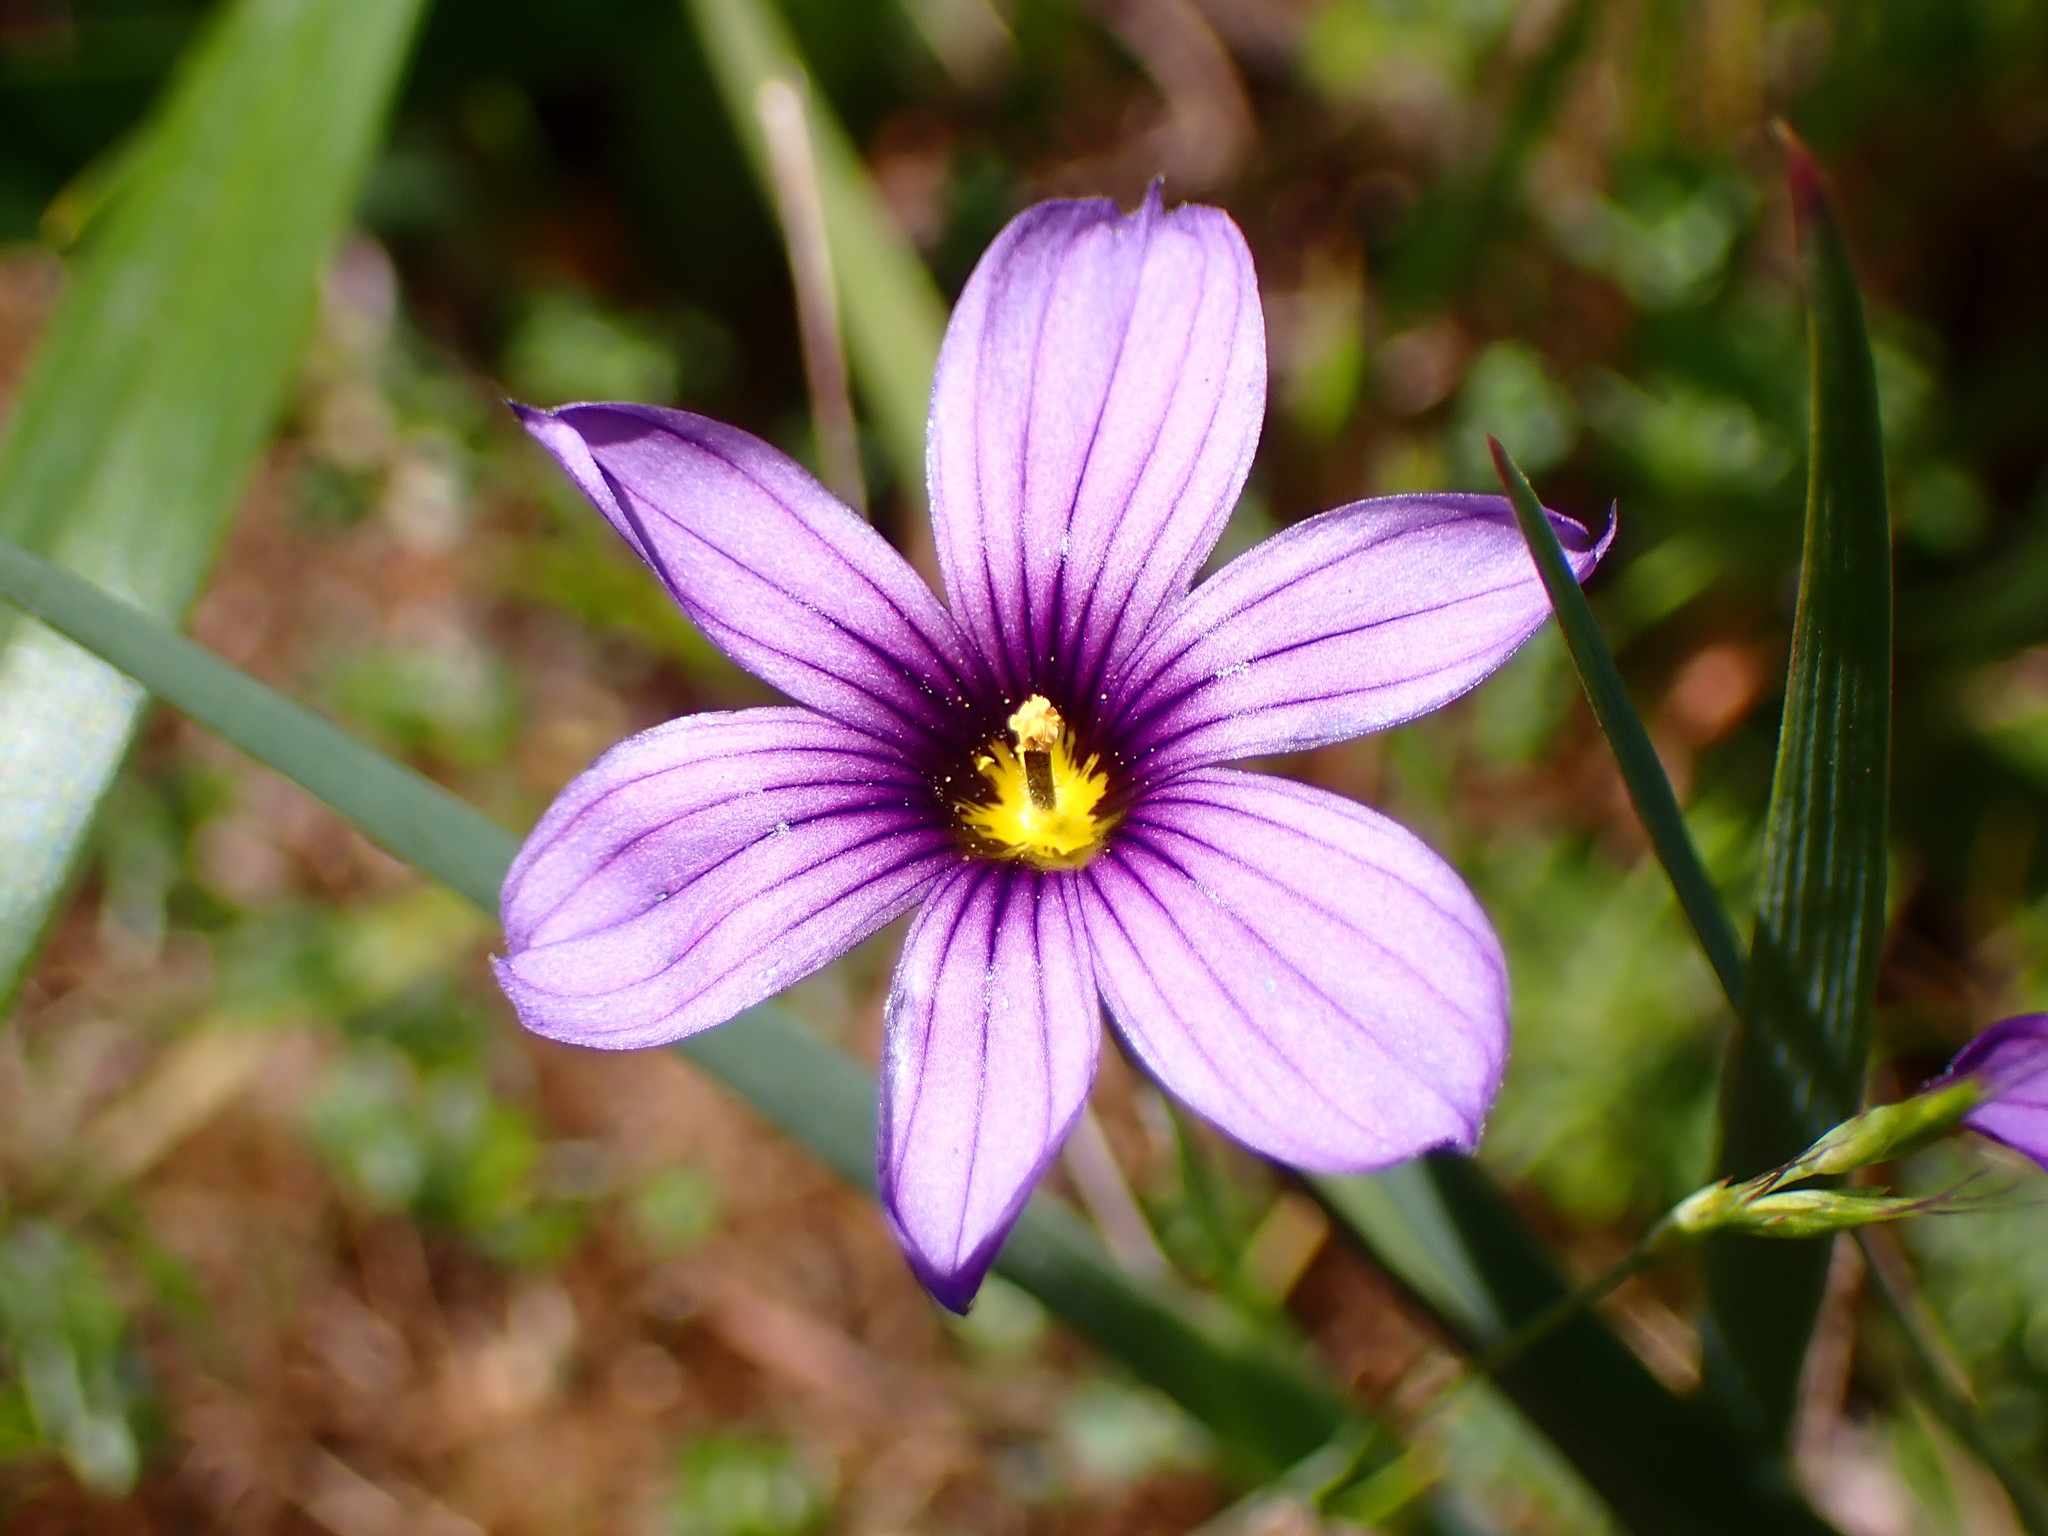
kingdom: Plantae
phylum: Tracheophyta
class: Liliopsida
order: Asparagales
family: Iridaceae
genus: Sisyrinchium
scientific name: Sisyrinchium bellum
